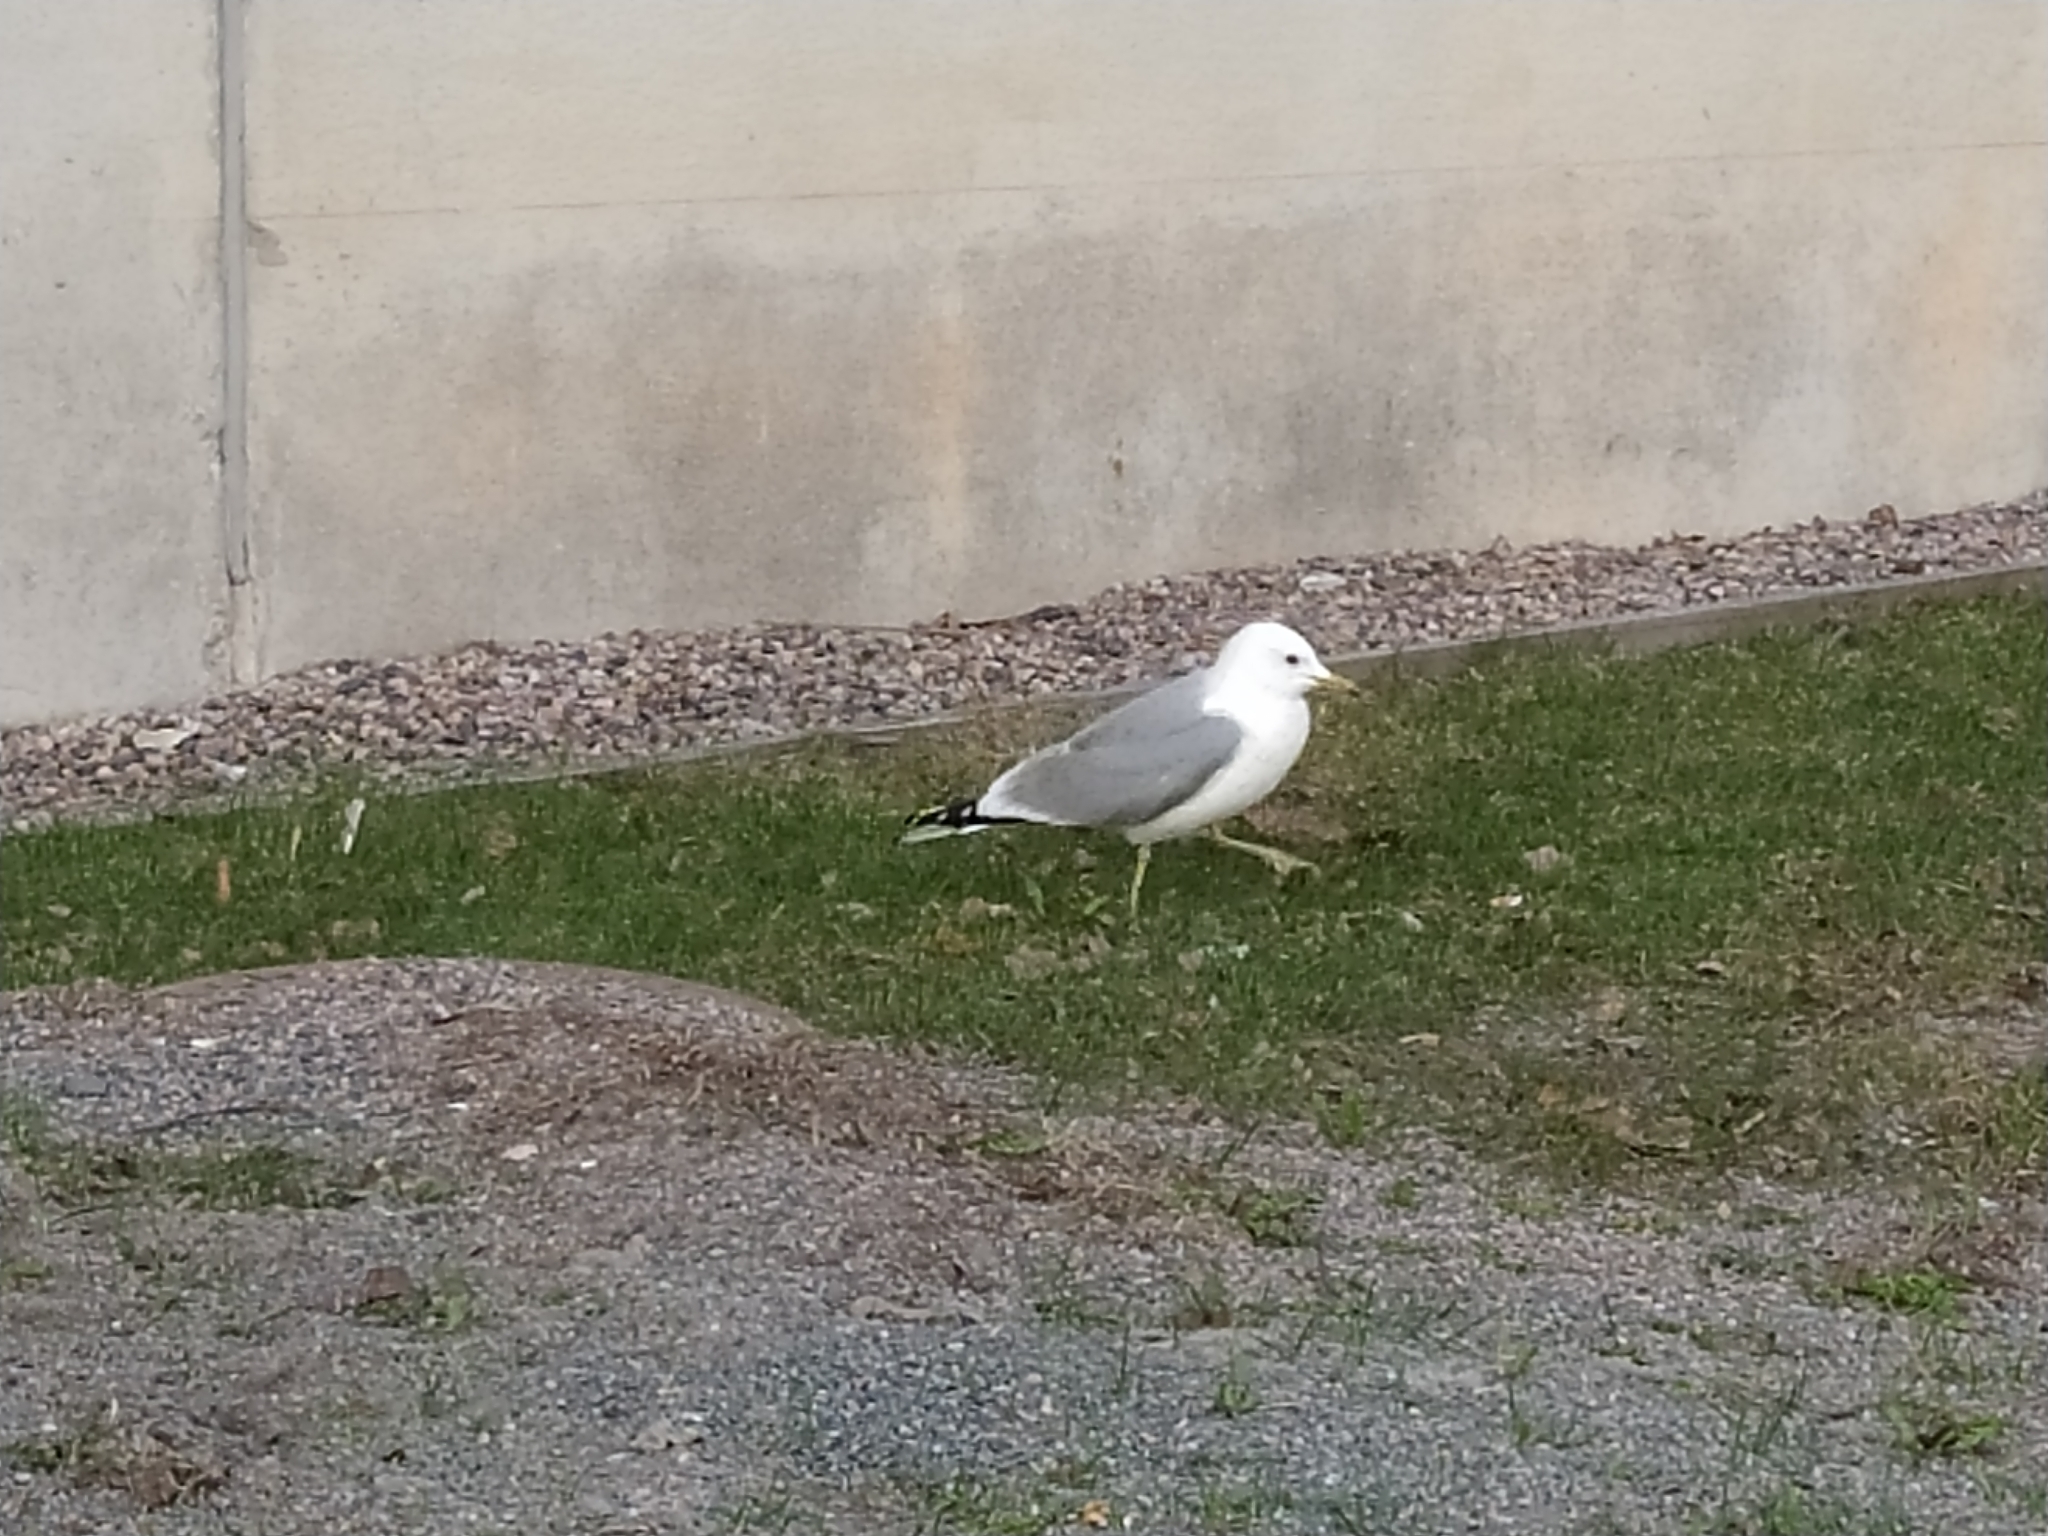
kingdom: Animalia
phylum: Chordata
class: Aves
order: Charadriiformes
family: Laridae
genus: Larus
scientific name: Larus canus
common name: Mew gull
